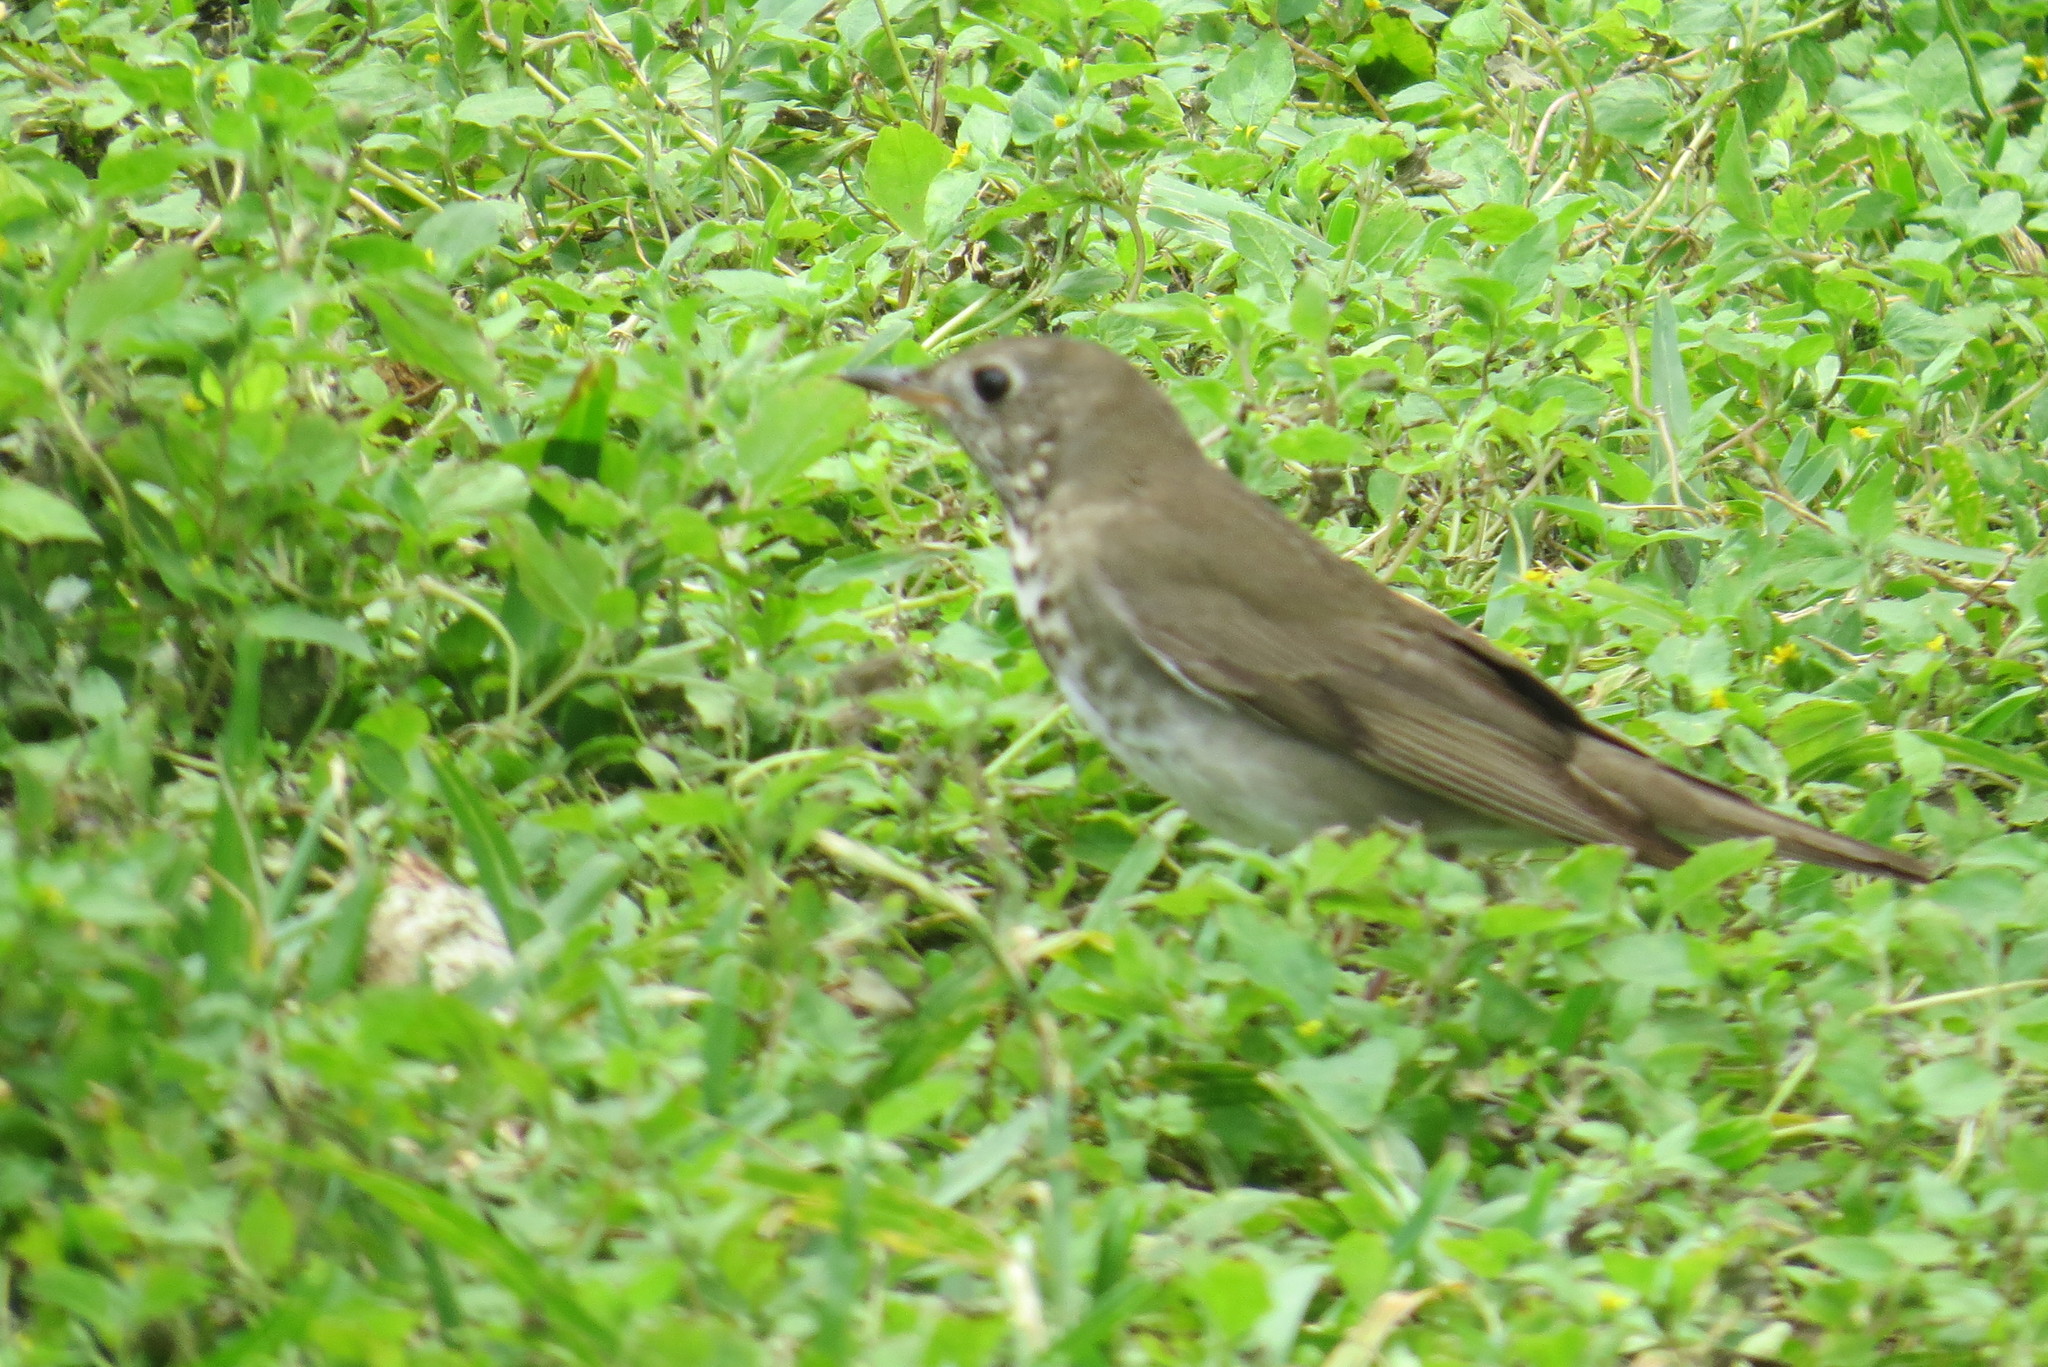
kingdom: Animalia
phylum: Chordata
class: Aves
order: Passeriformes
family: Turdidae
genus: Catharus
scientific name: Catharus minimus
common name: Grey-cheeked thrush
